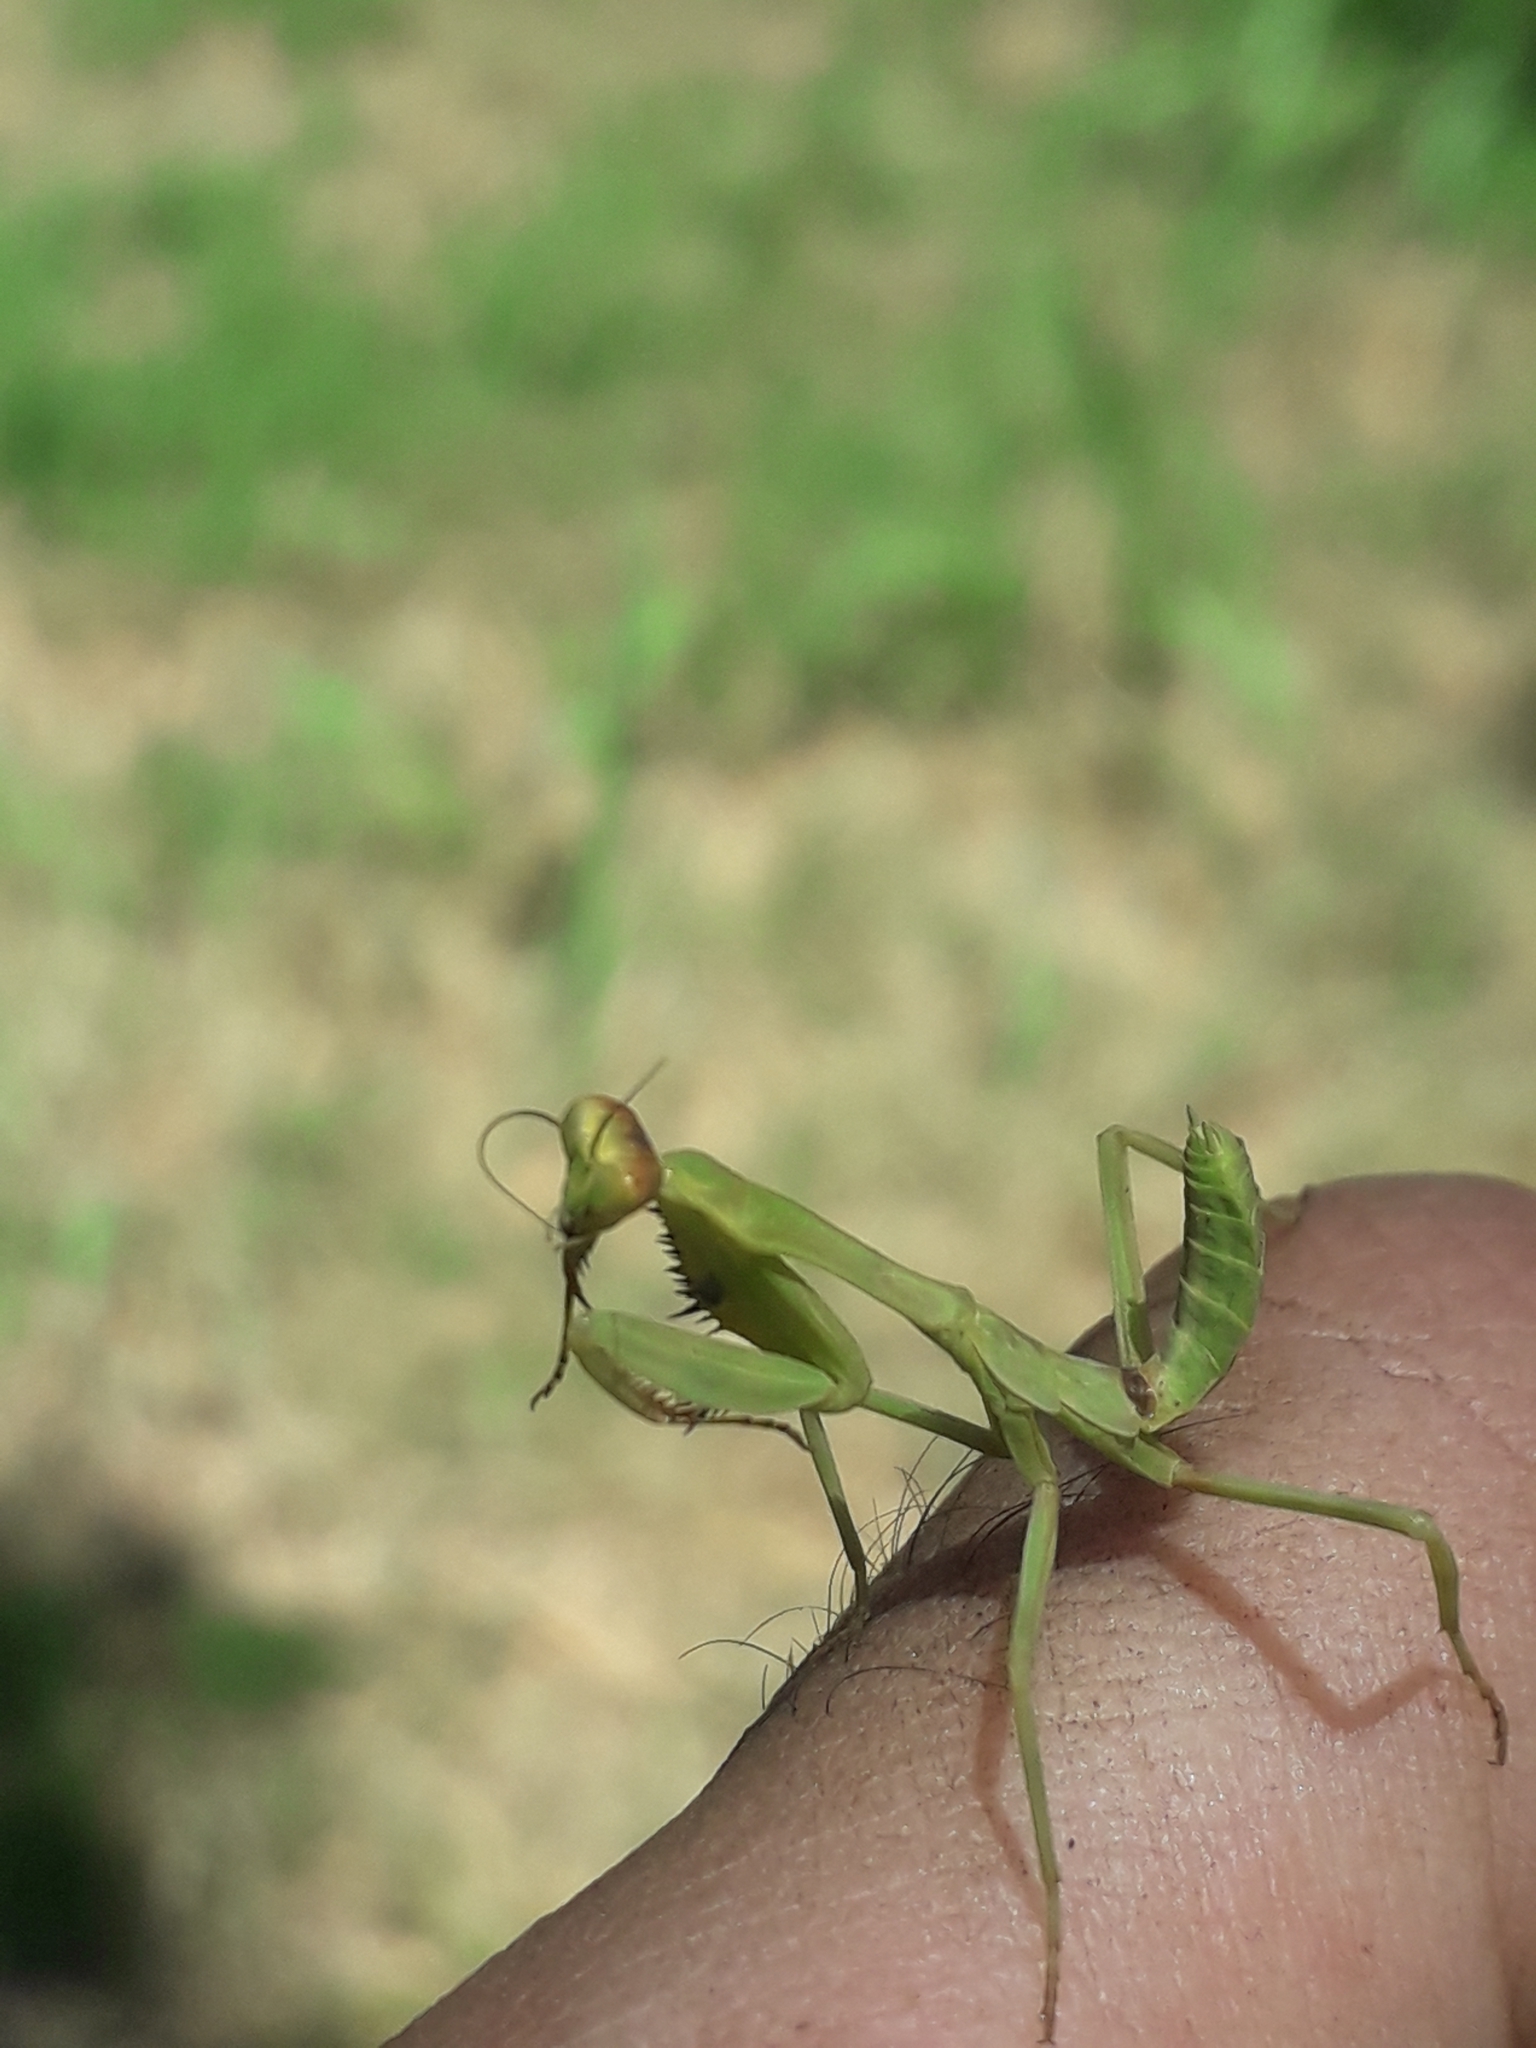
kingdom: Animalia
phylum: Arthropoda
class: Insecta
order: Mantodea
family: Mantidae
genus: Stagmatoptera
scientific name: Stagmatoptera hyaloptera
